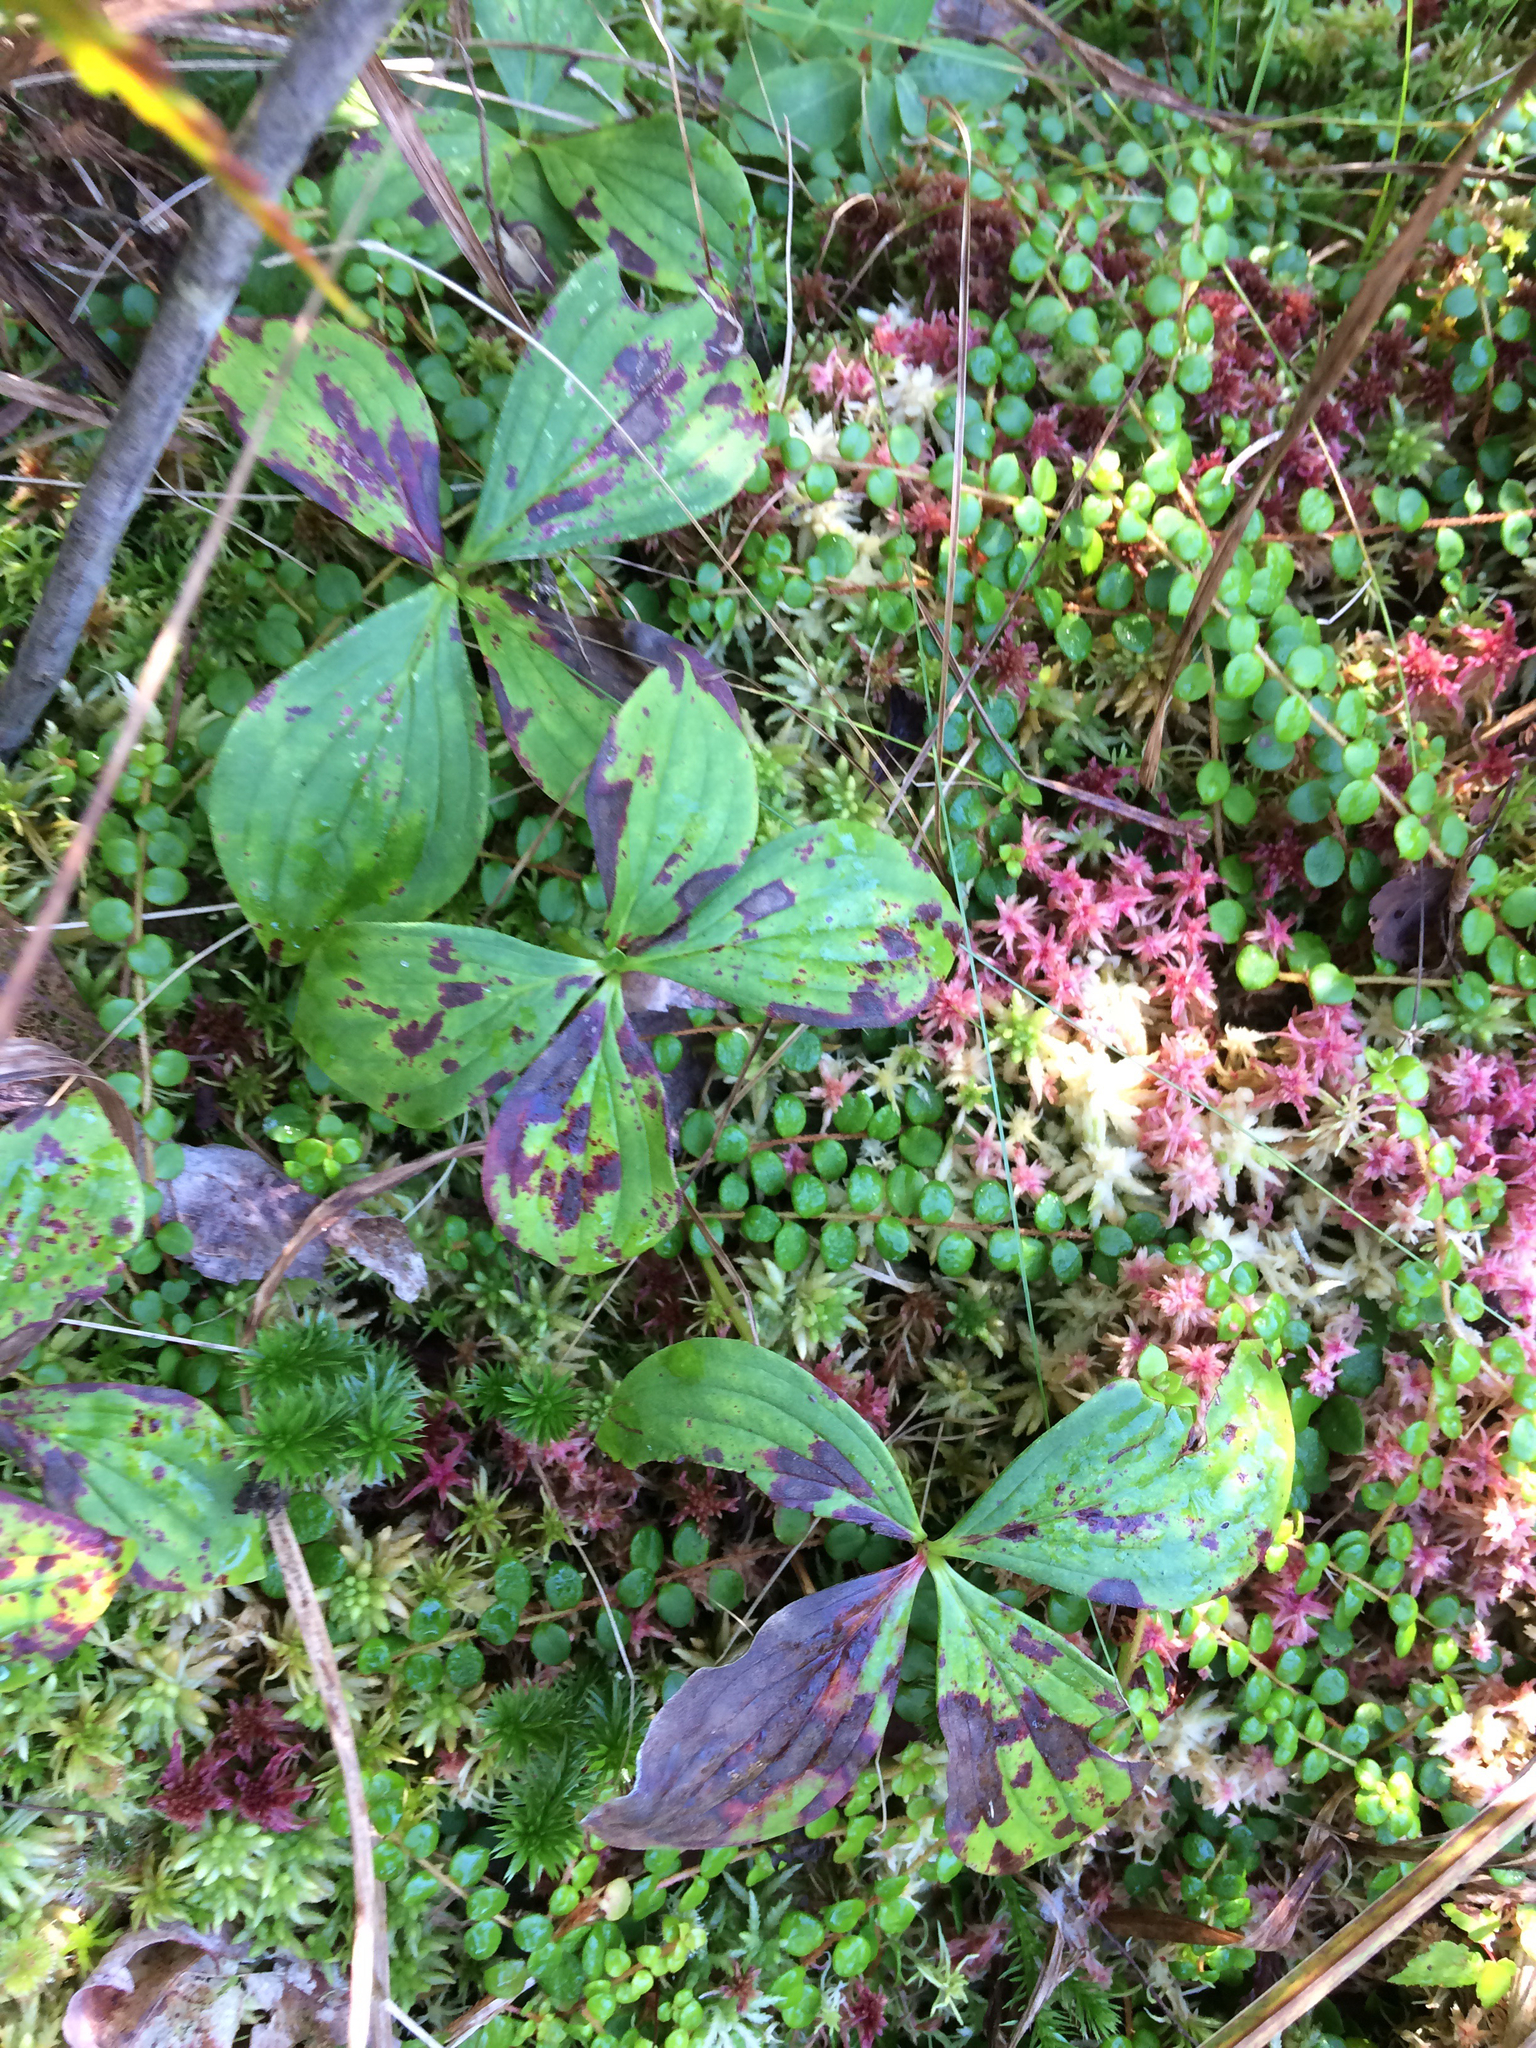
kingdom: Plantae
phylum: Tracheophyta
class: Magnoliopsida
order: Cornales
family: Cornaceae
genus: Cornus
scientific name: Cornus canadensis
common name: Creeping dogwood
